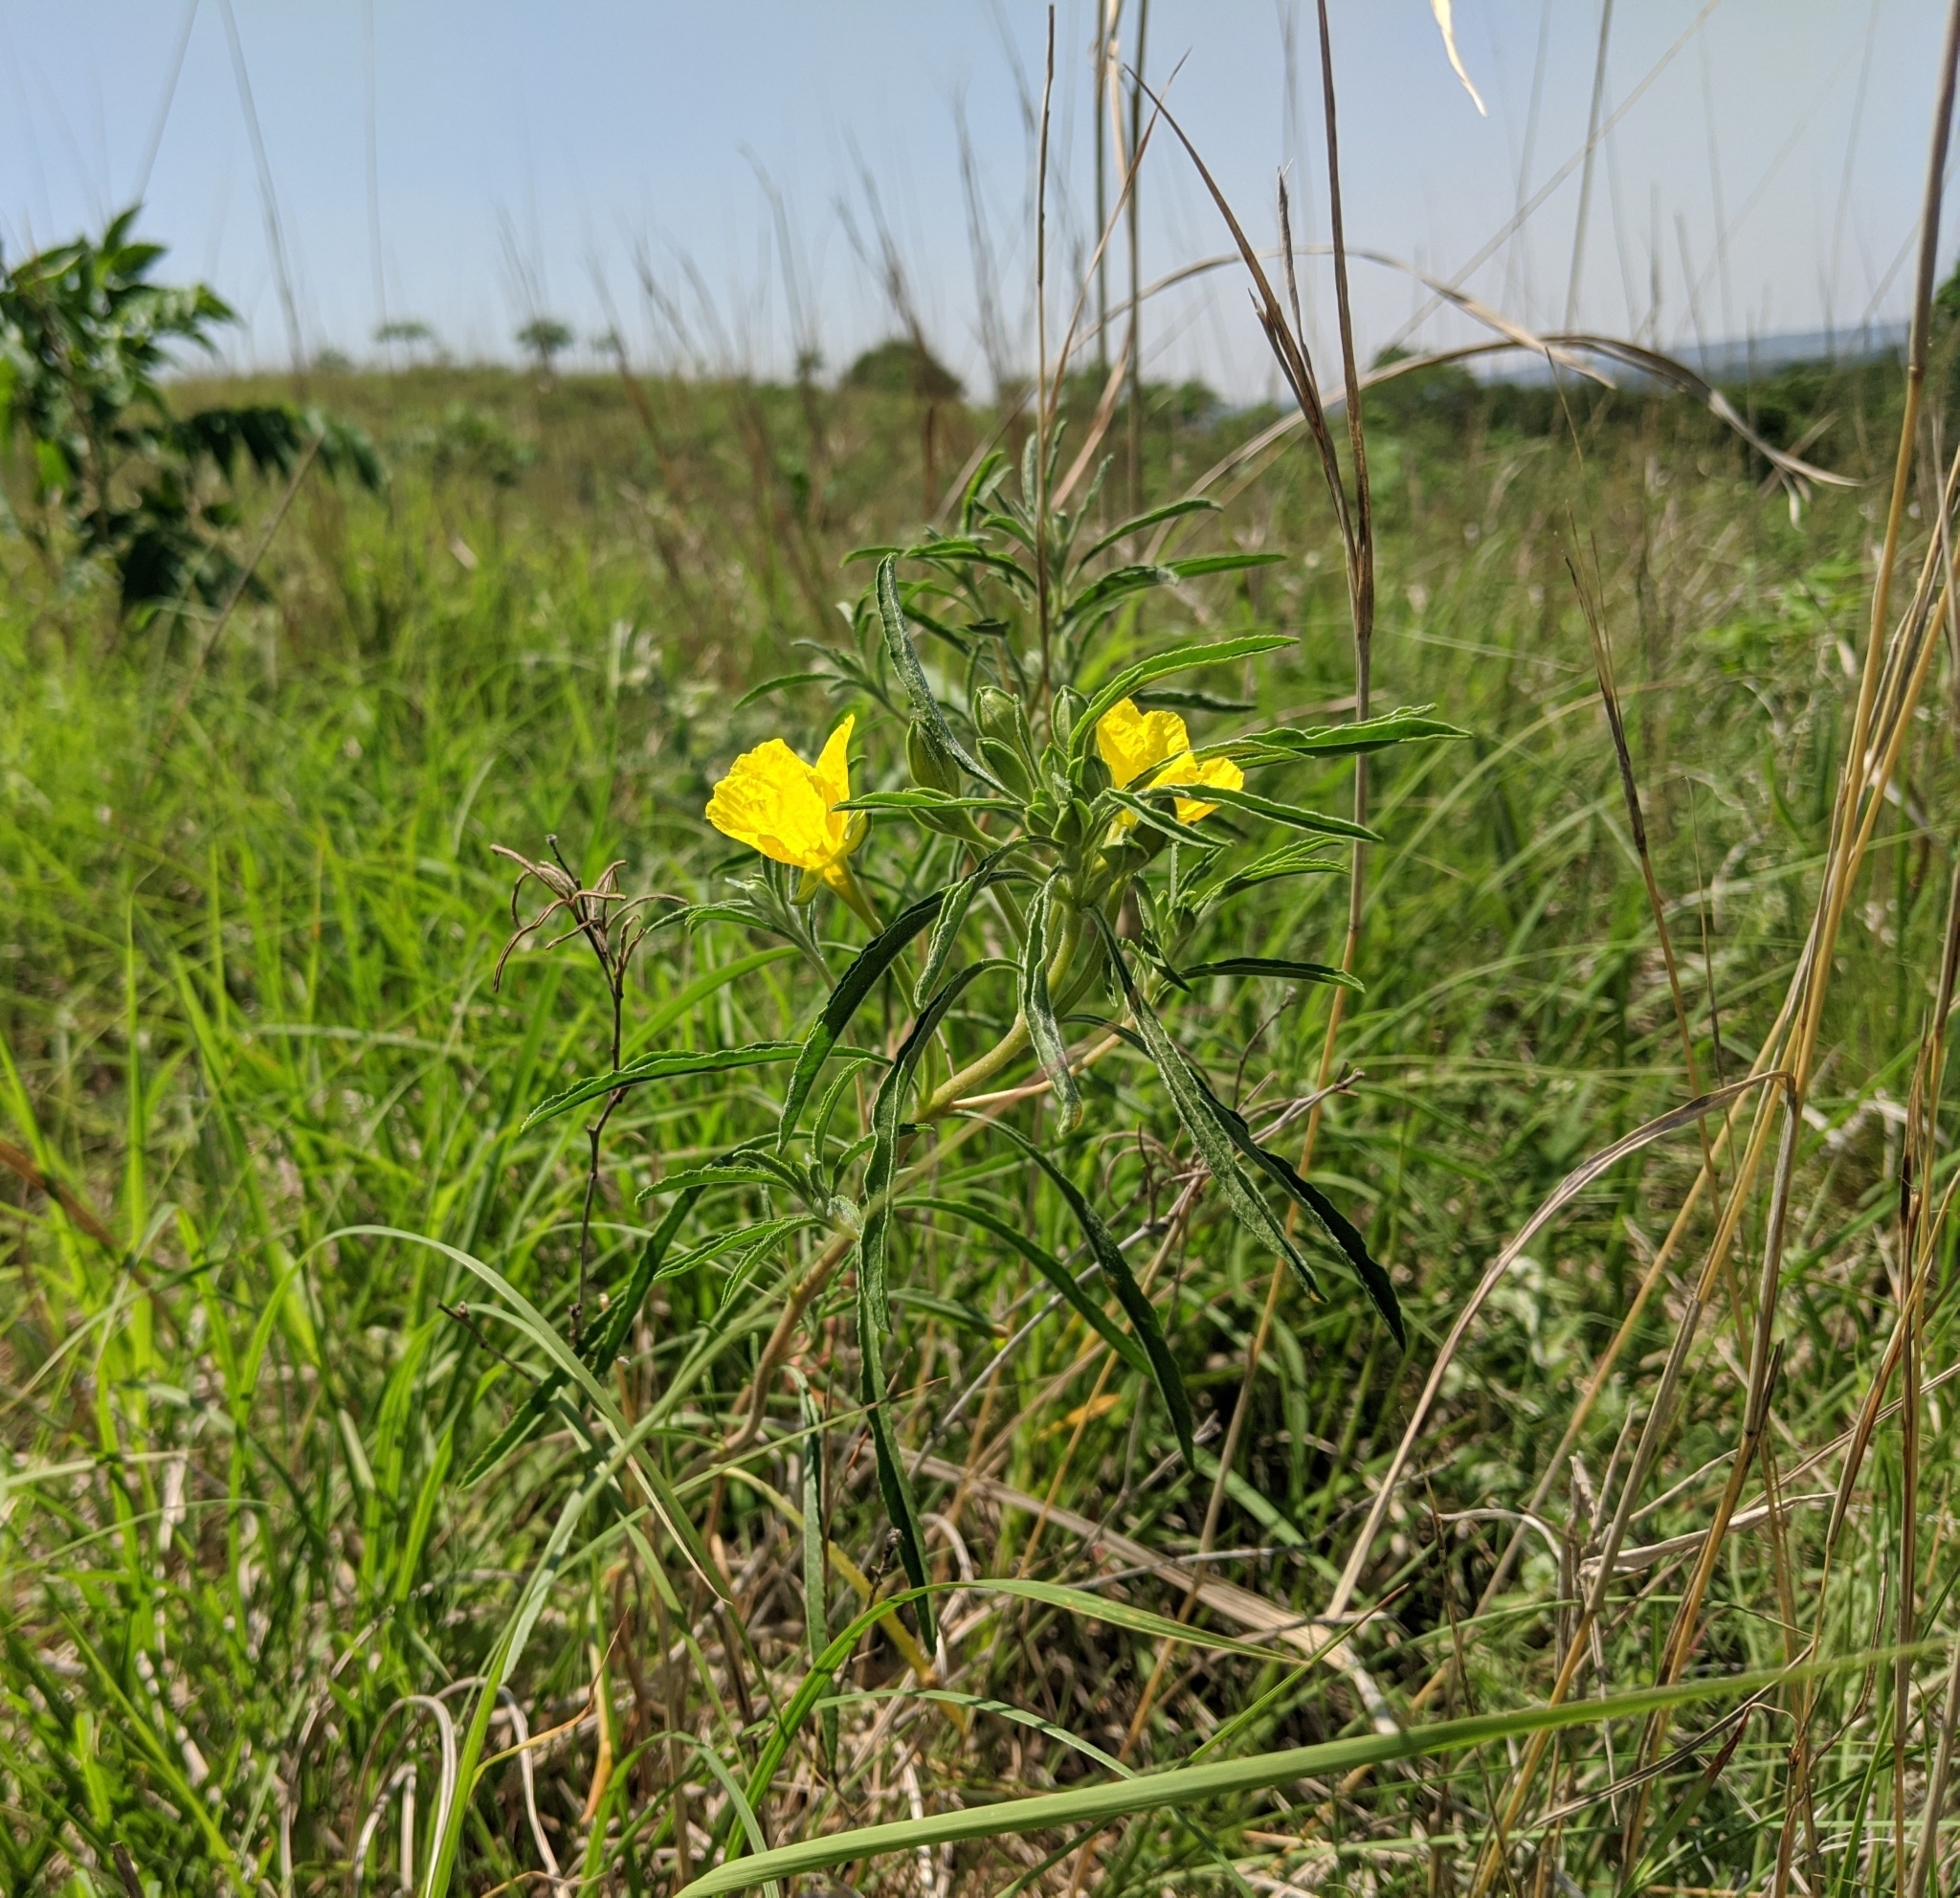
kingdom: Plantae
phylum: Tracheophyta
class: Magnoliopsida
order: Myrtales
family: Onagraceae
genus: Oenothera
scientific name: Oenothera serrulata
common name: Half-shrub calylophus
